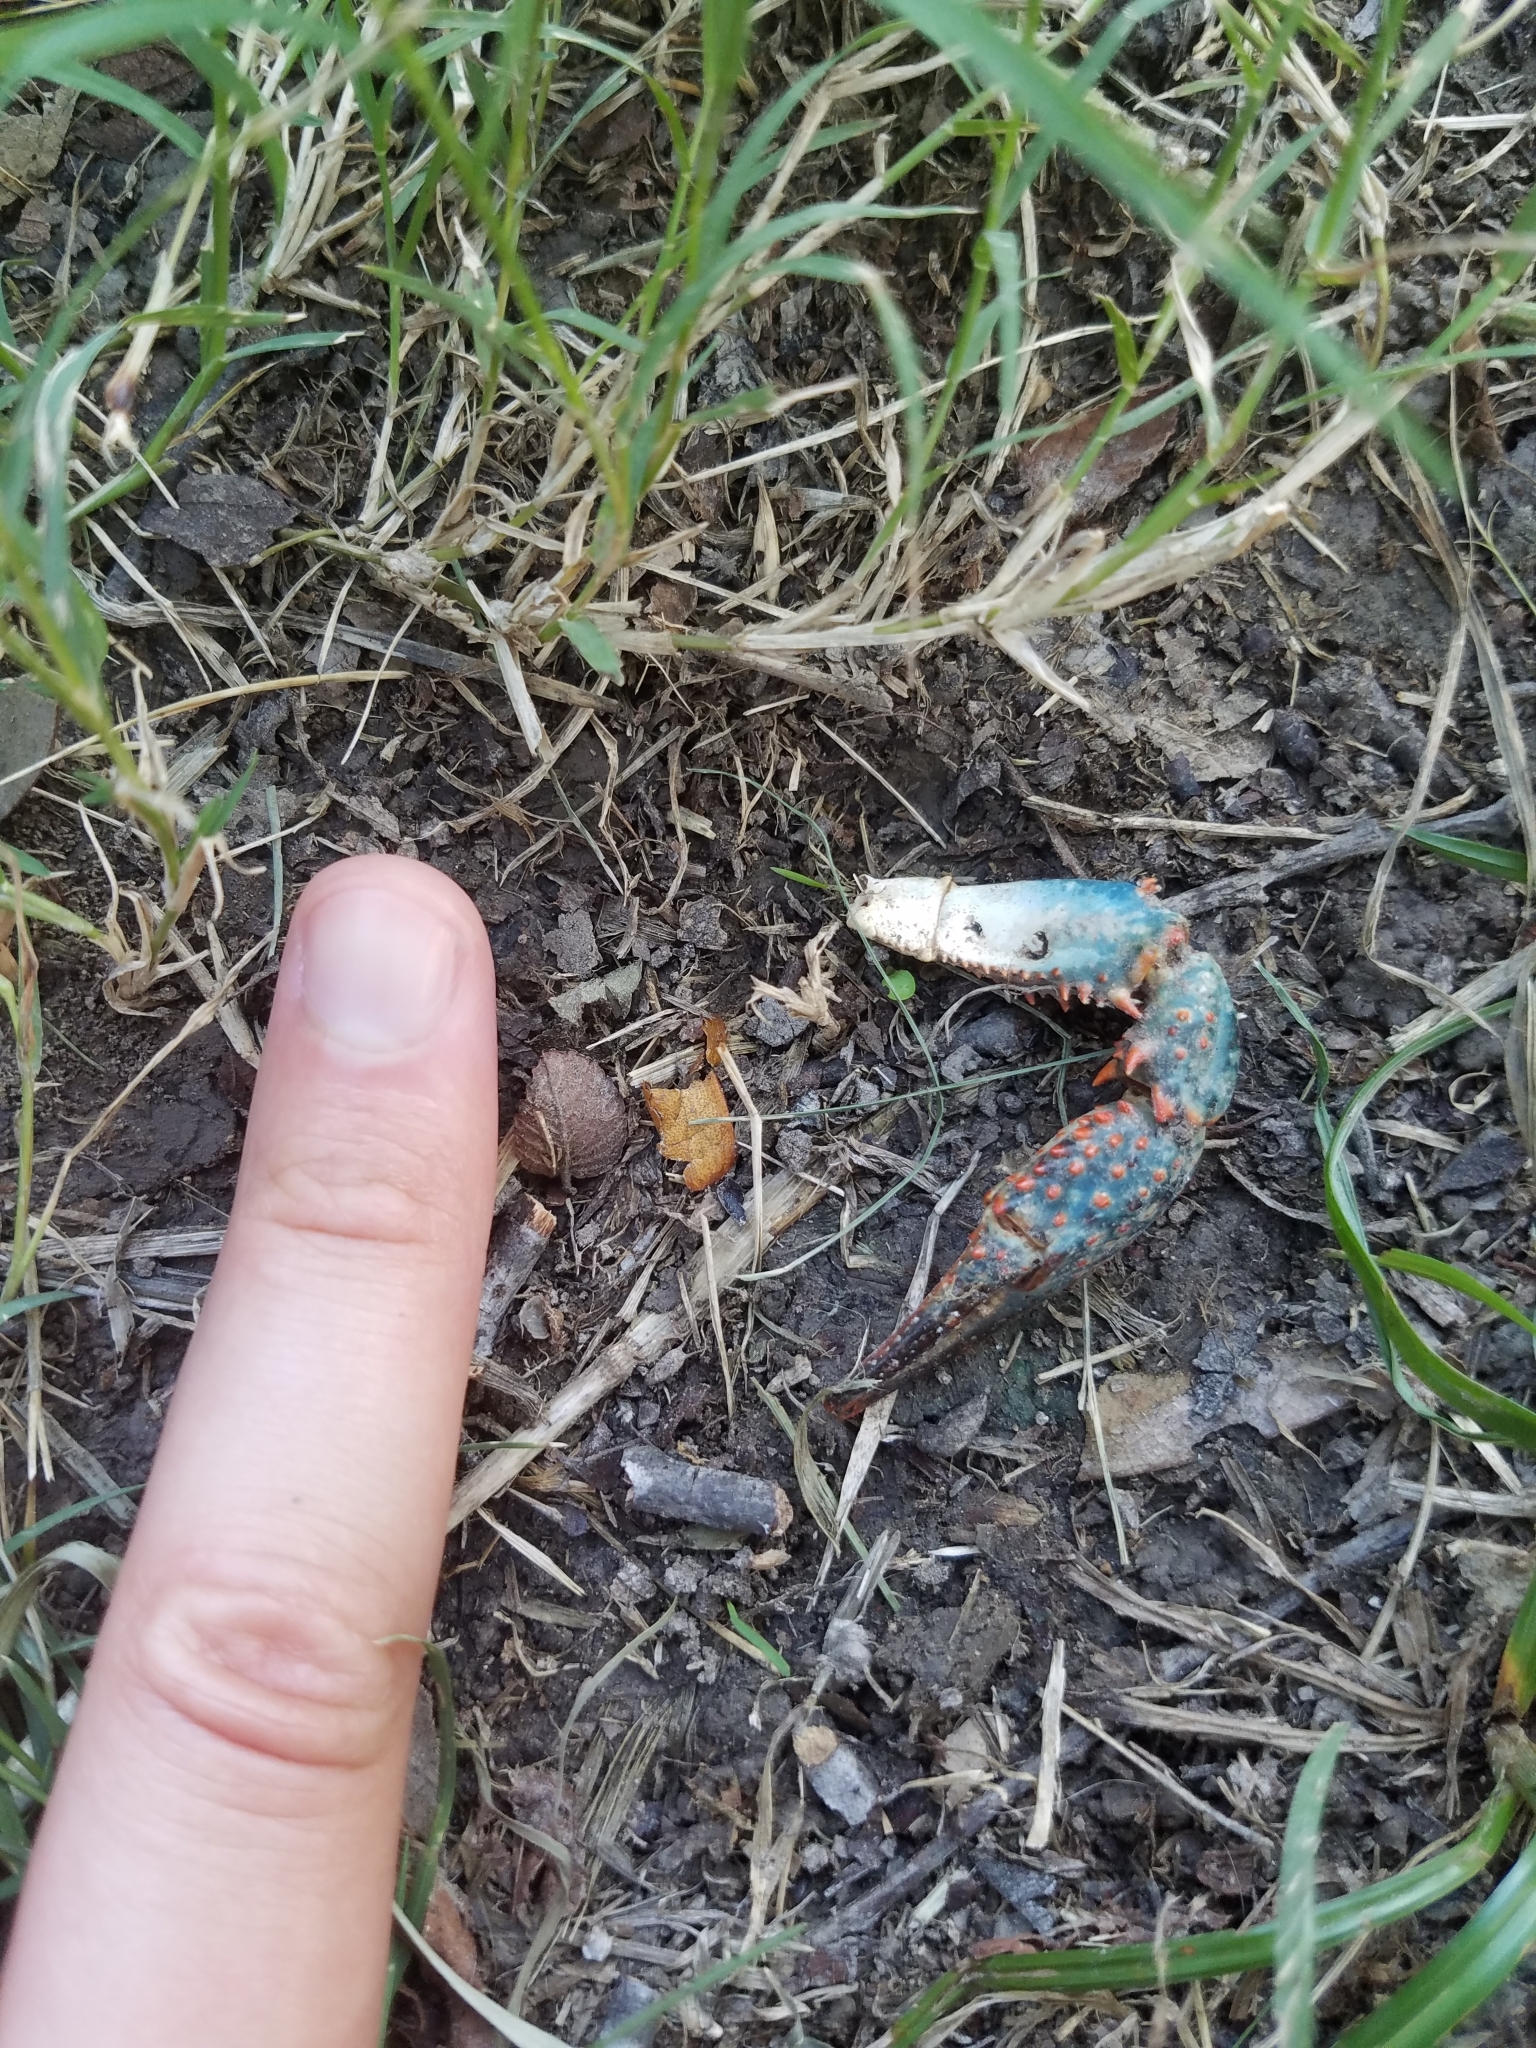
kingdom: Animalia
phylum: Arthropoda
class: Malacostraca
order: Decapoda
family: Cambaridae
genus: Procambarus
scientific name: Procambarus clarkii
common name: Red swamp crayfish
